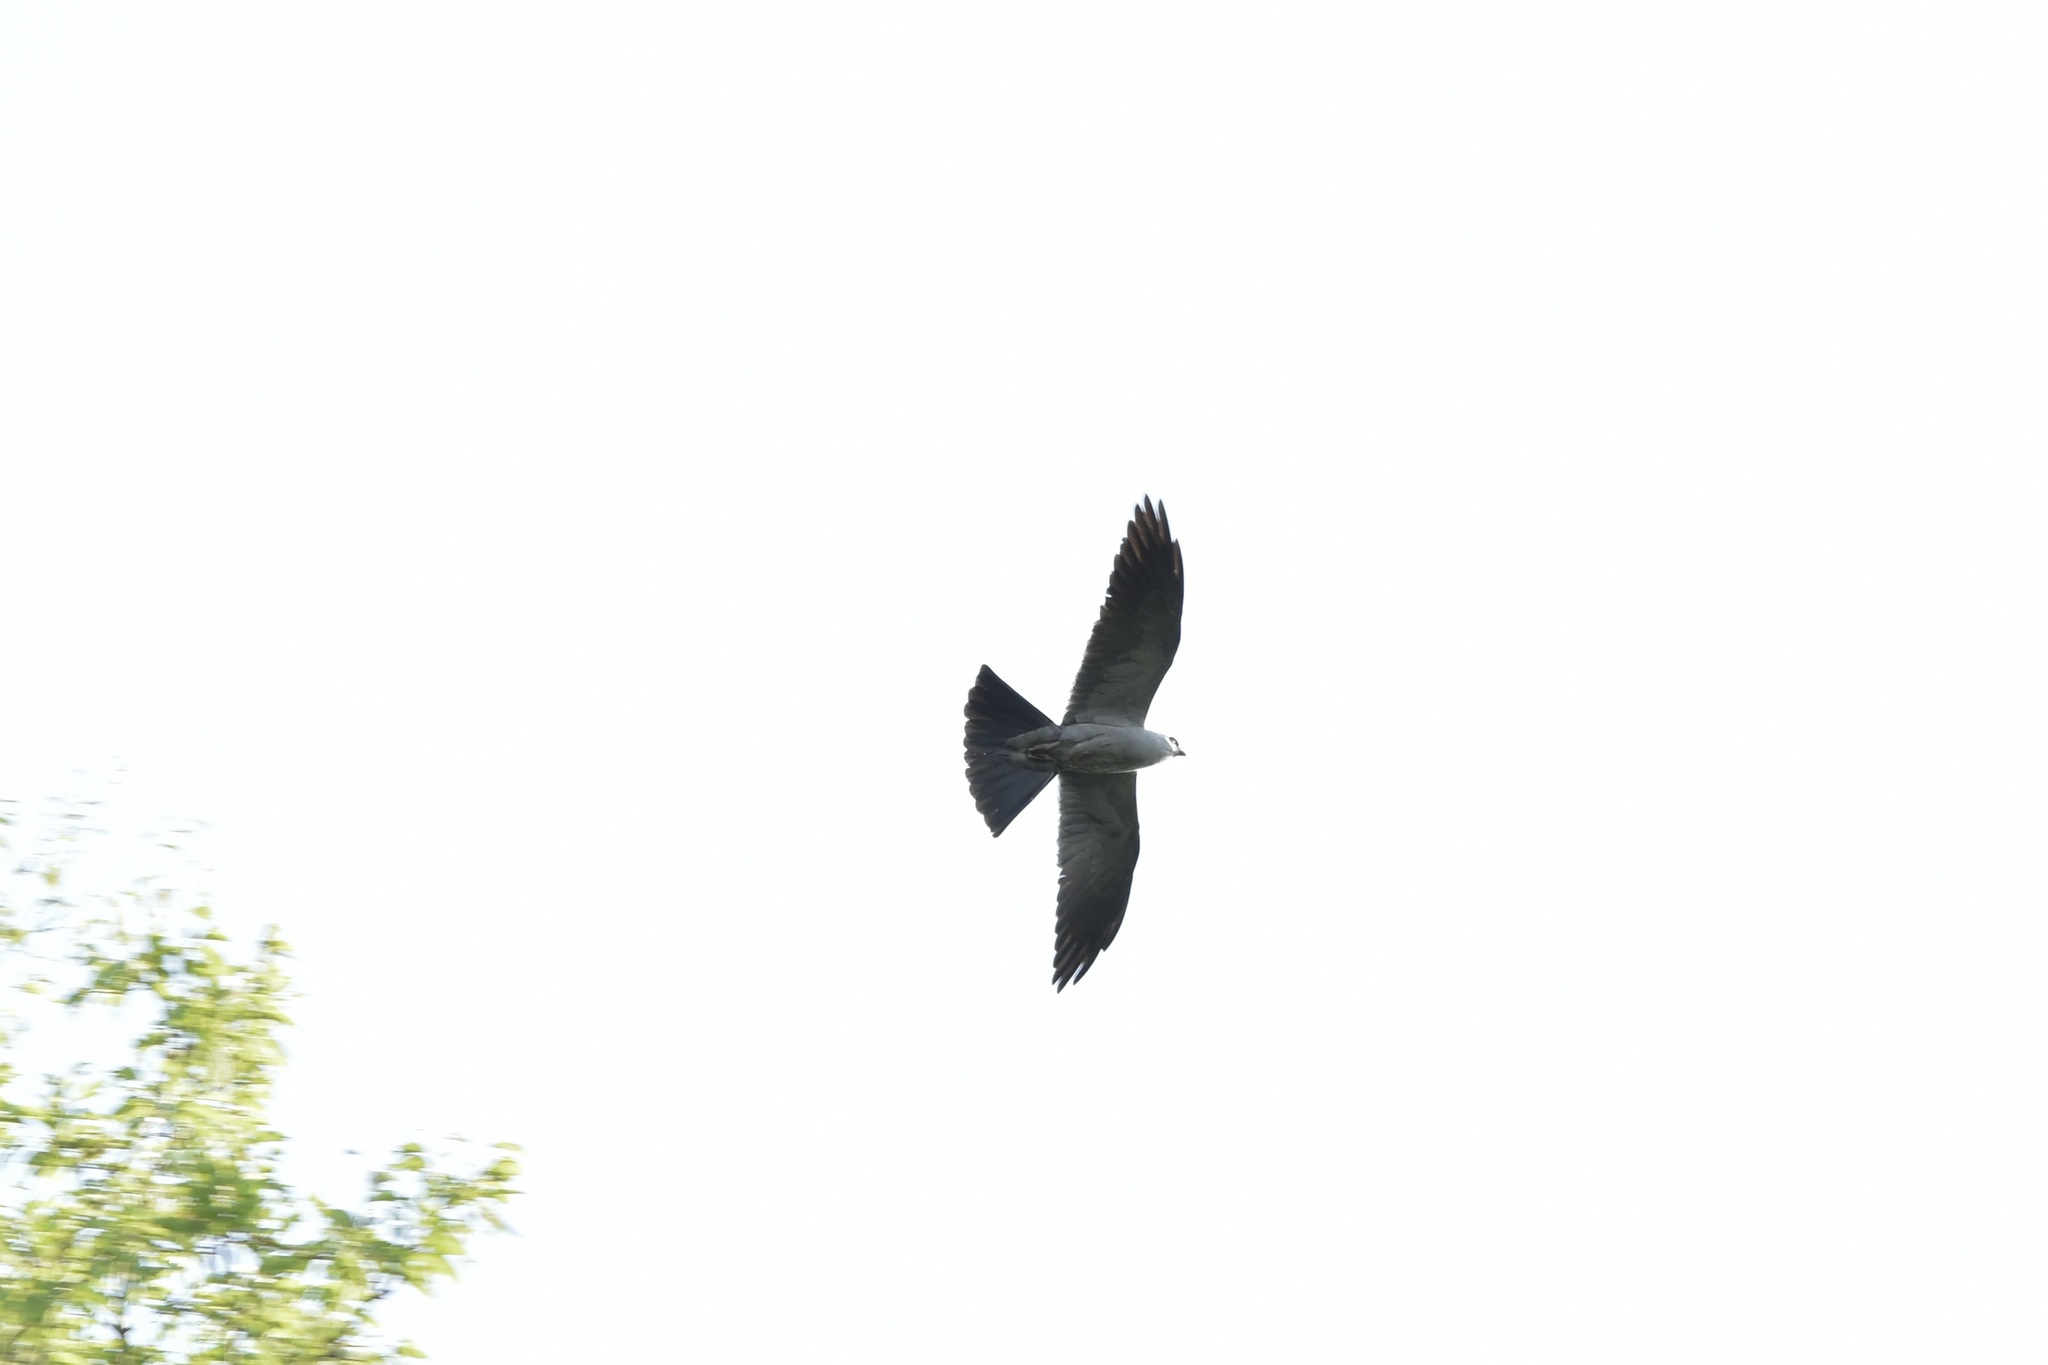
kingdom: Animalia
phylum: Chordata
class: Aves
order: Accipitriformes
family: Accipitridae
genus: Ictinia
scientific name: Ictinia mississippiensis
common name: Mississippi kite
